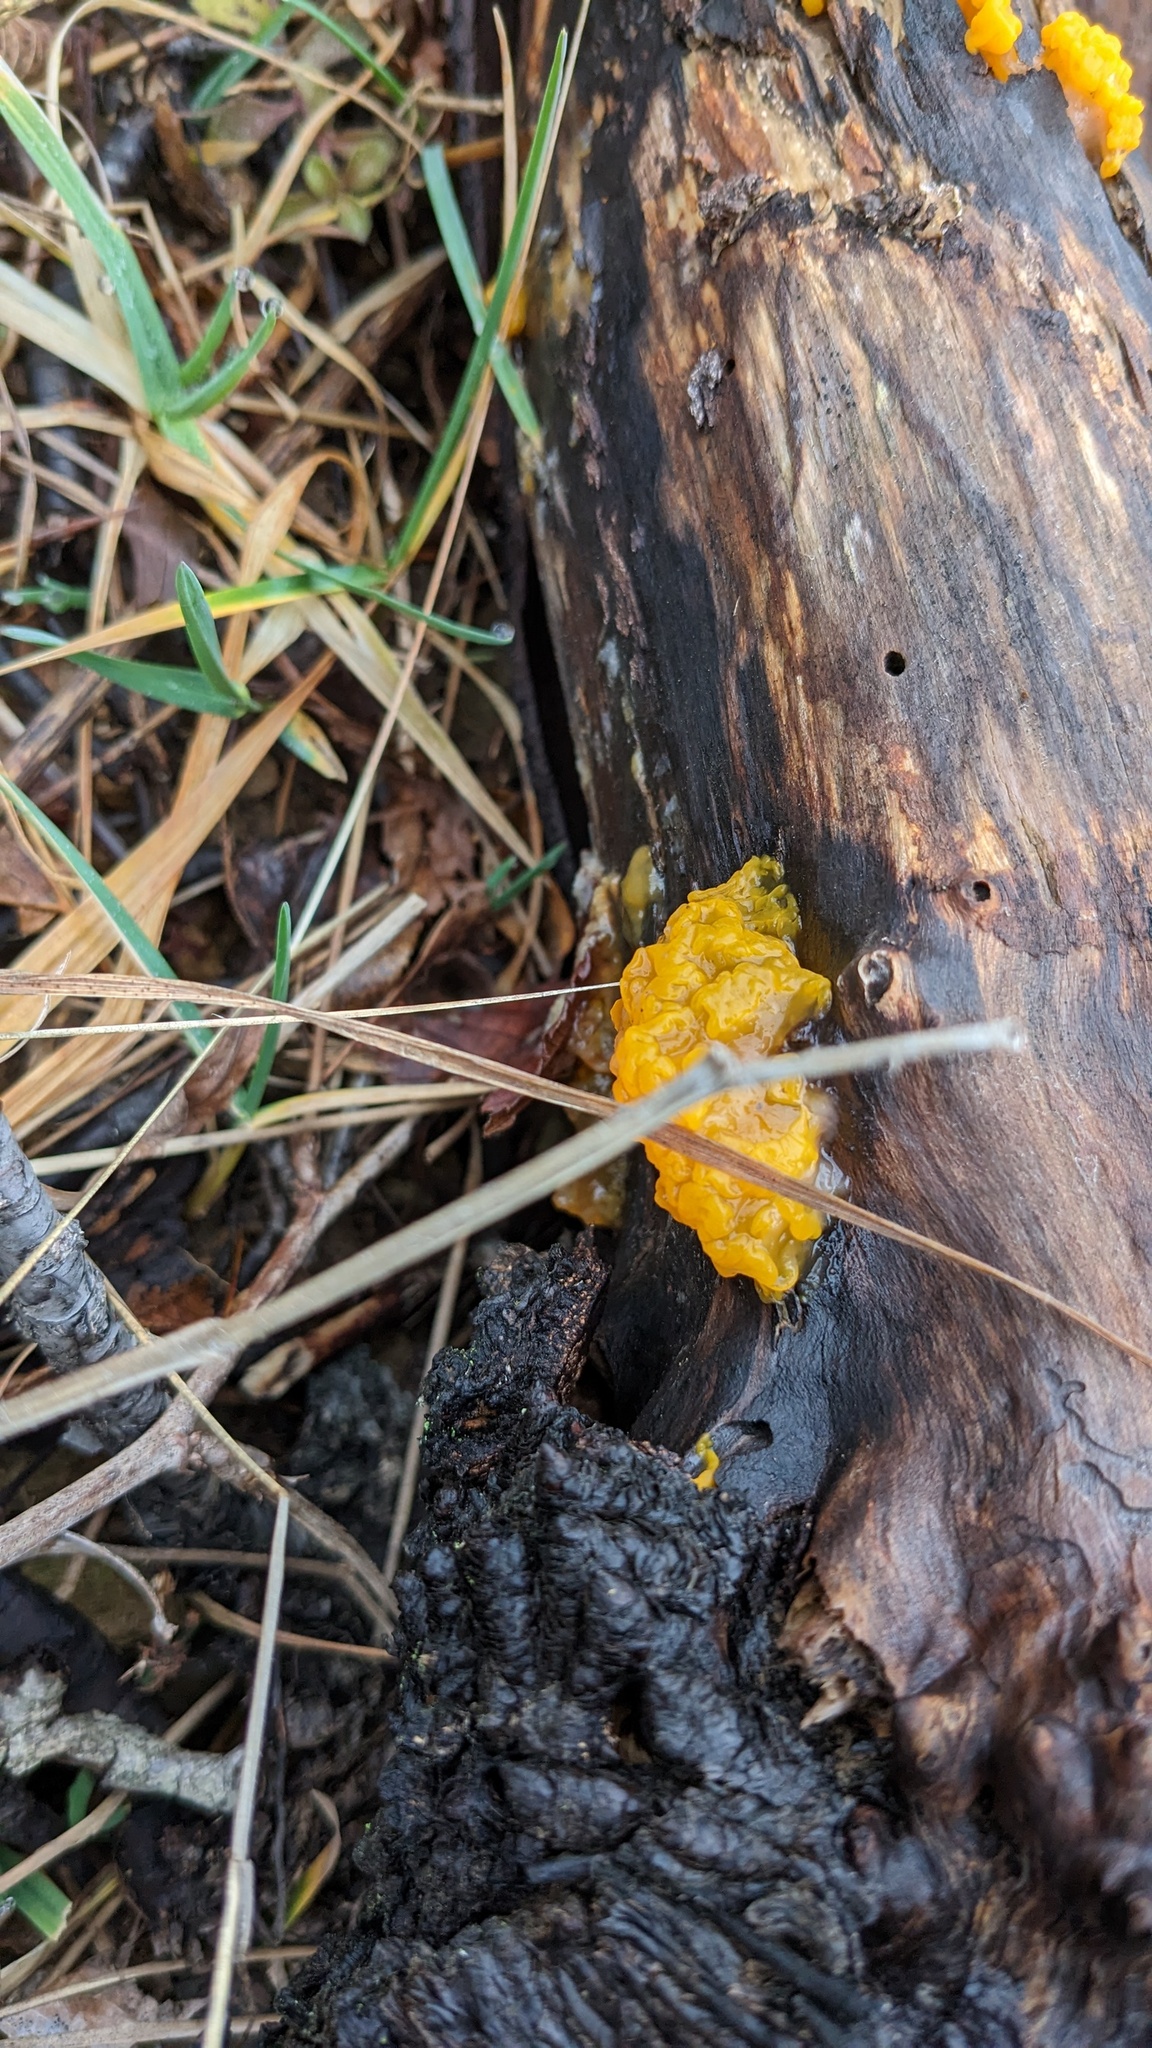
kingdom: Fungi
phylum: Basidiomycota
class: Dacrymycetes
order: Dacrymycetales
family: Dacrymycetaceae
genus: Dacrymyces
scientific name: Dacrymyces chrysospermus
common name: Orange jelly spot
